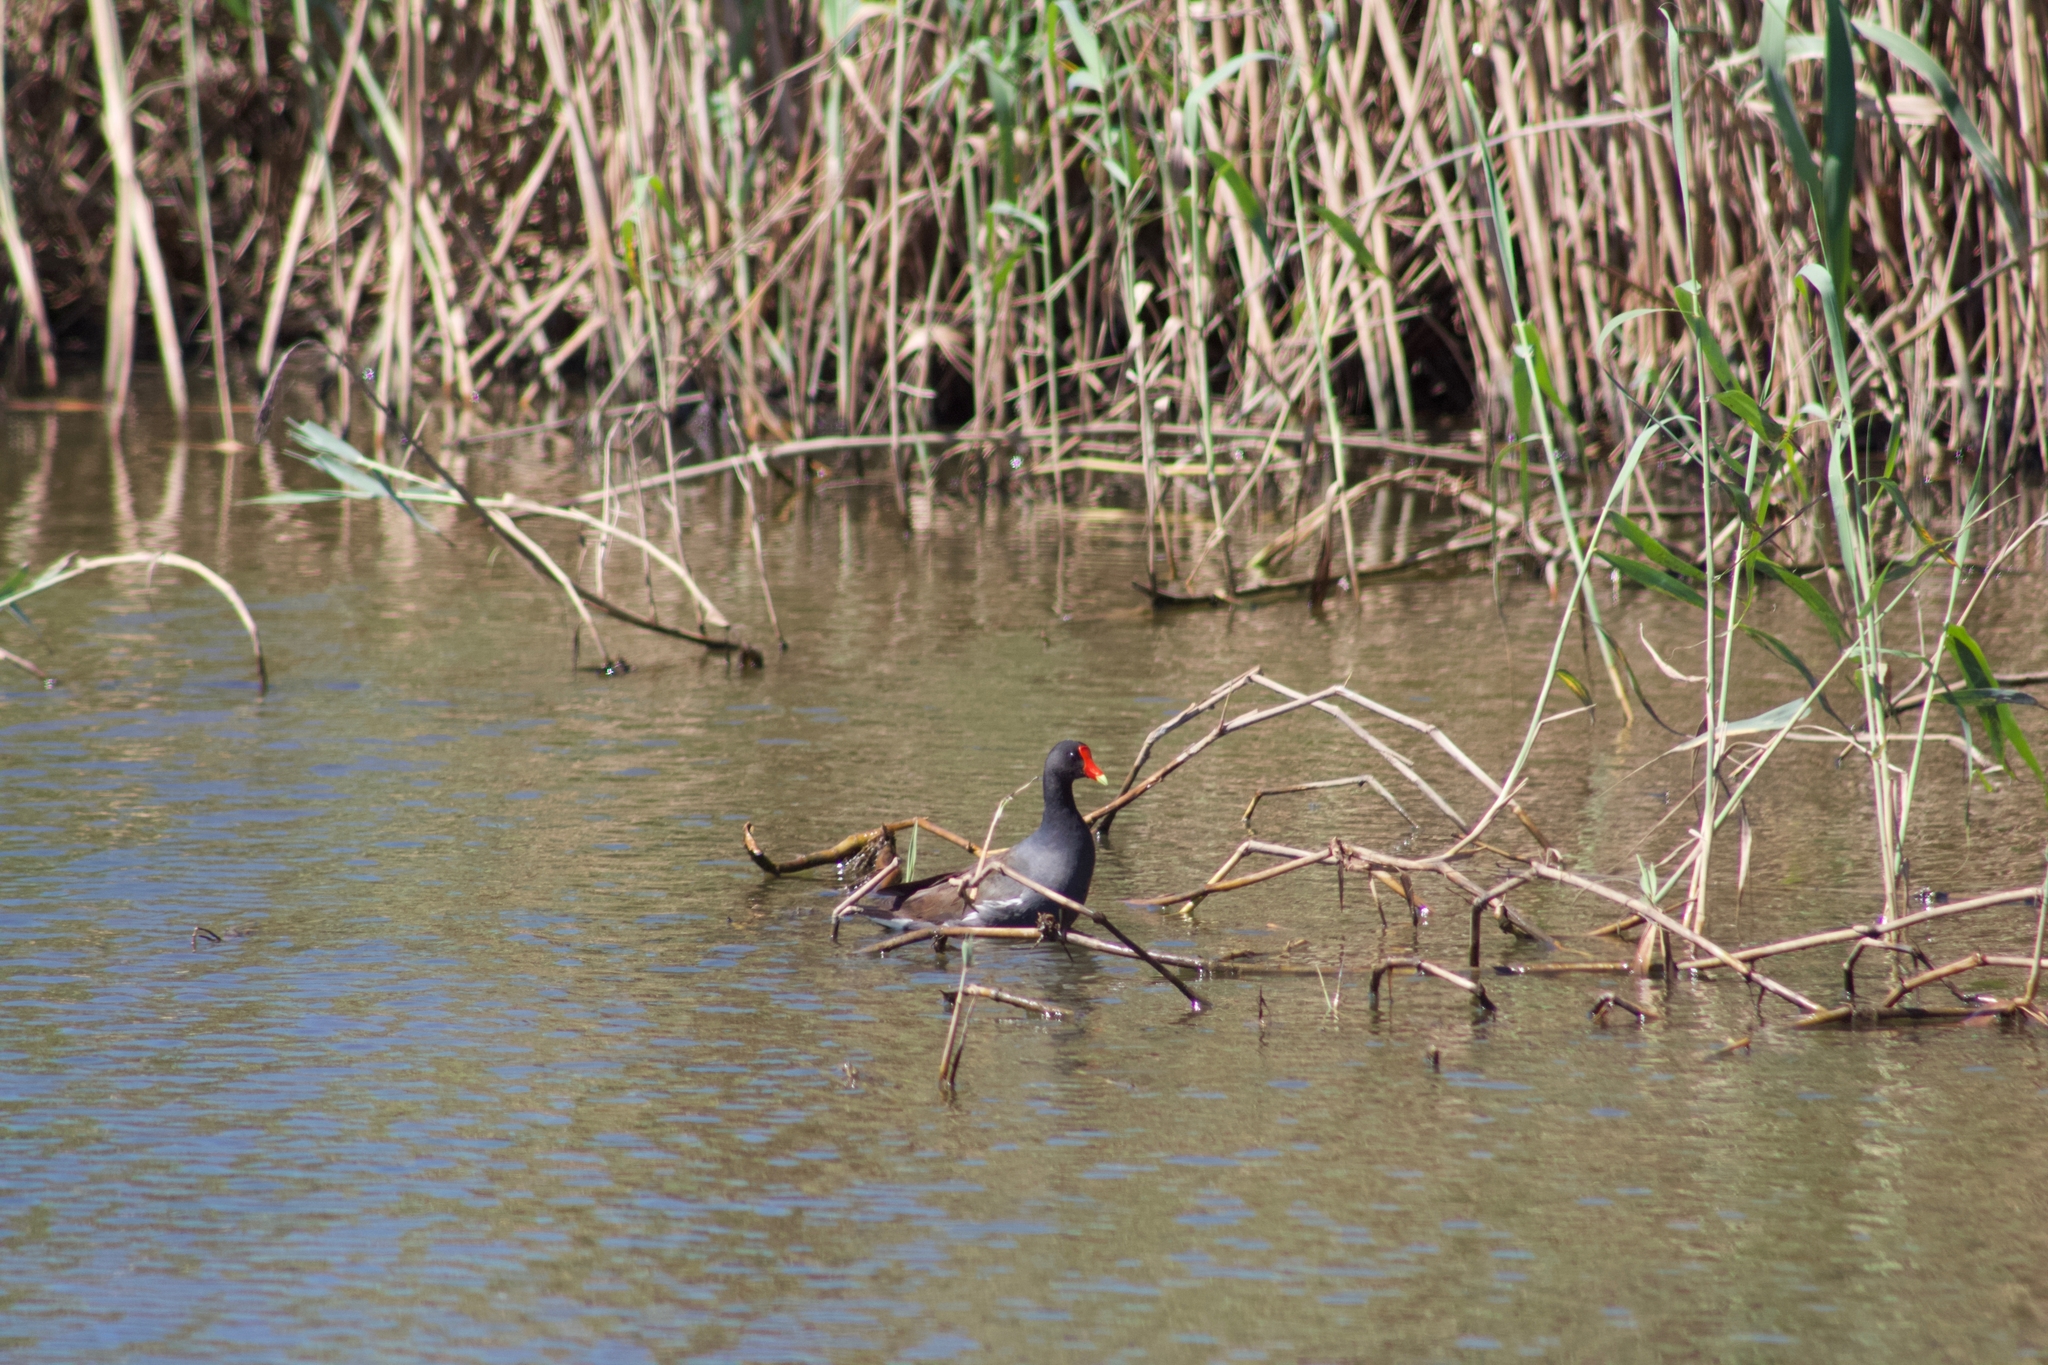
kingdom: Animalia
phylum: Chordata
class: Aves
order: Gruiformes
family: Rallidae
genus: Gallinula
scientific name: Gallinula chloropus
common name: Common moorhen
